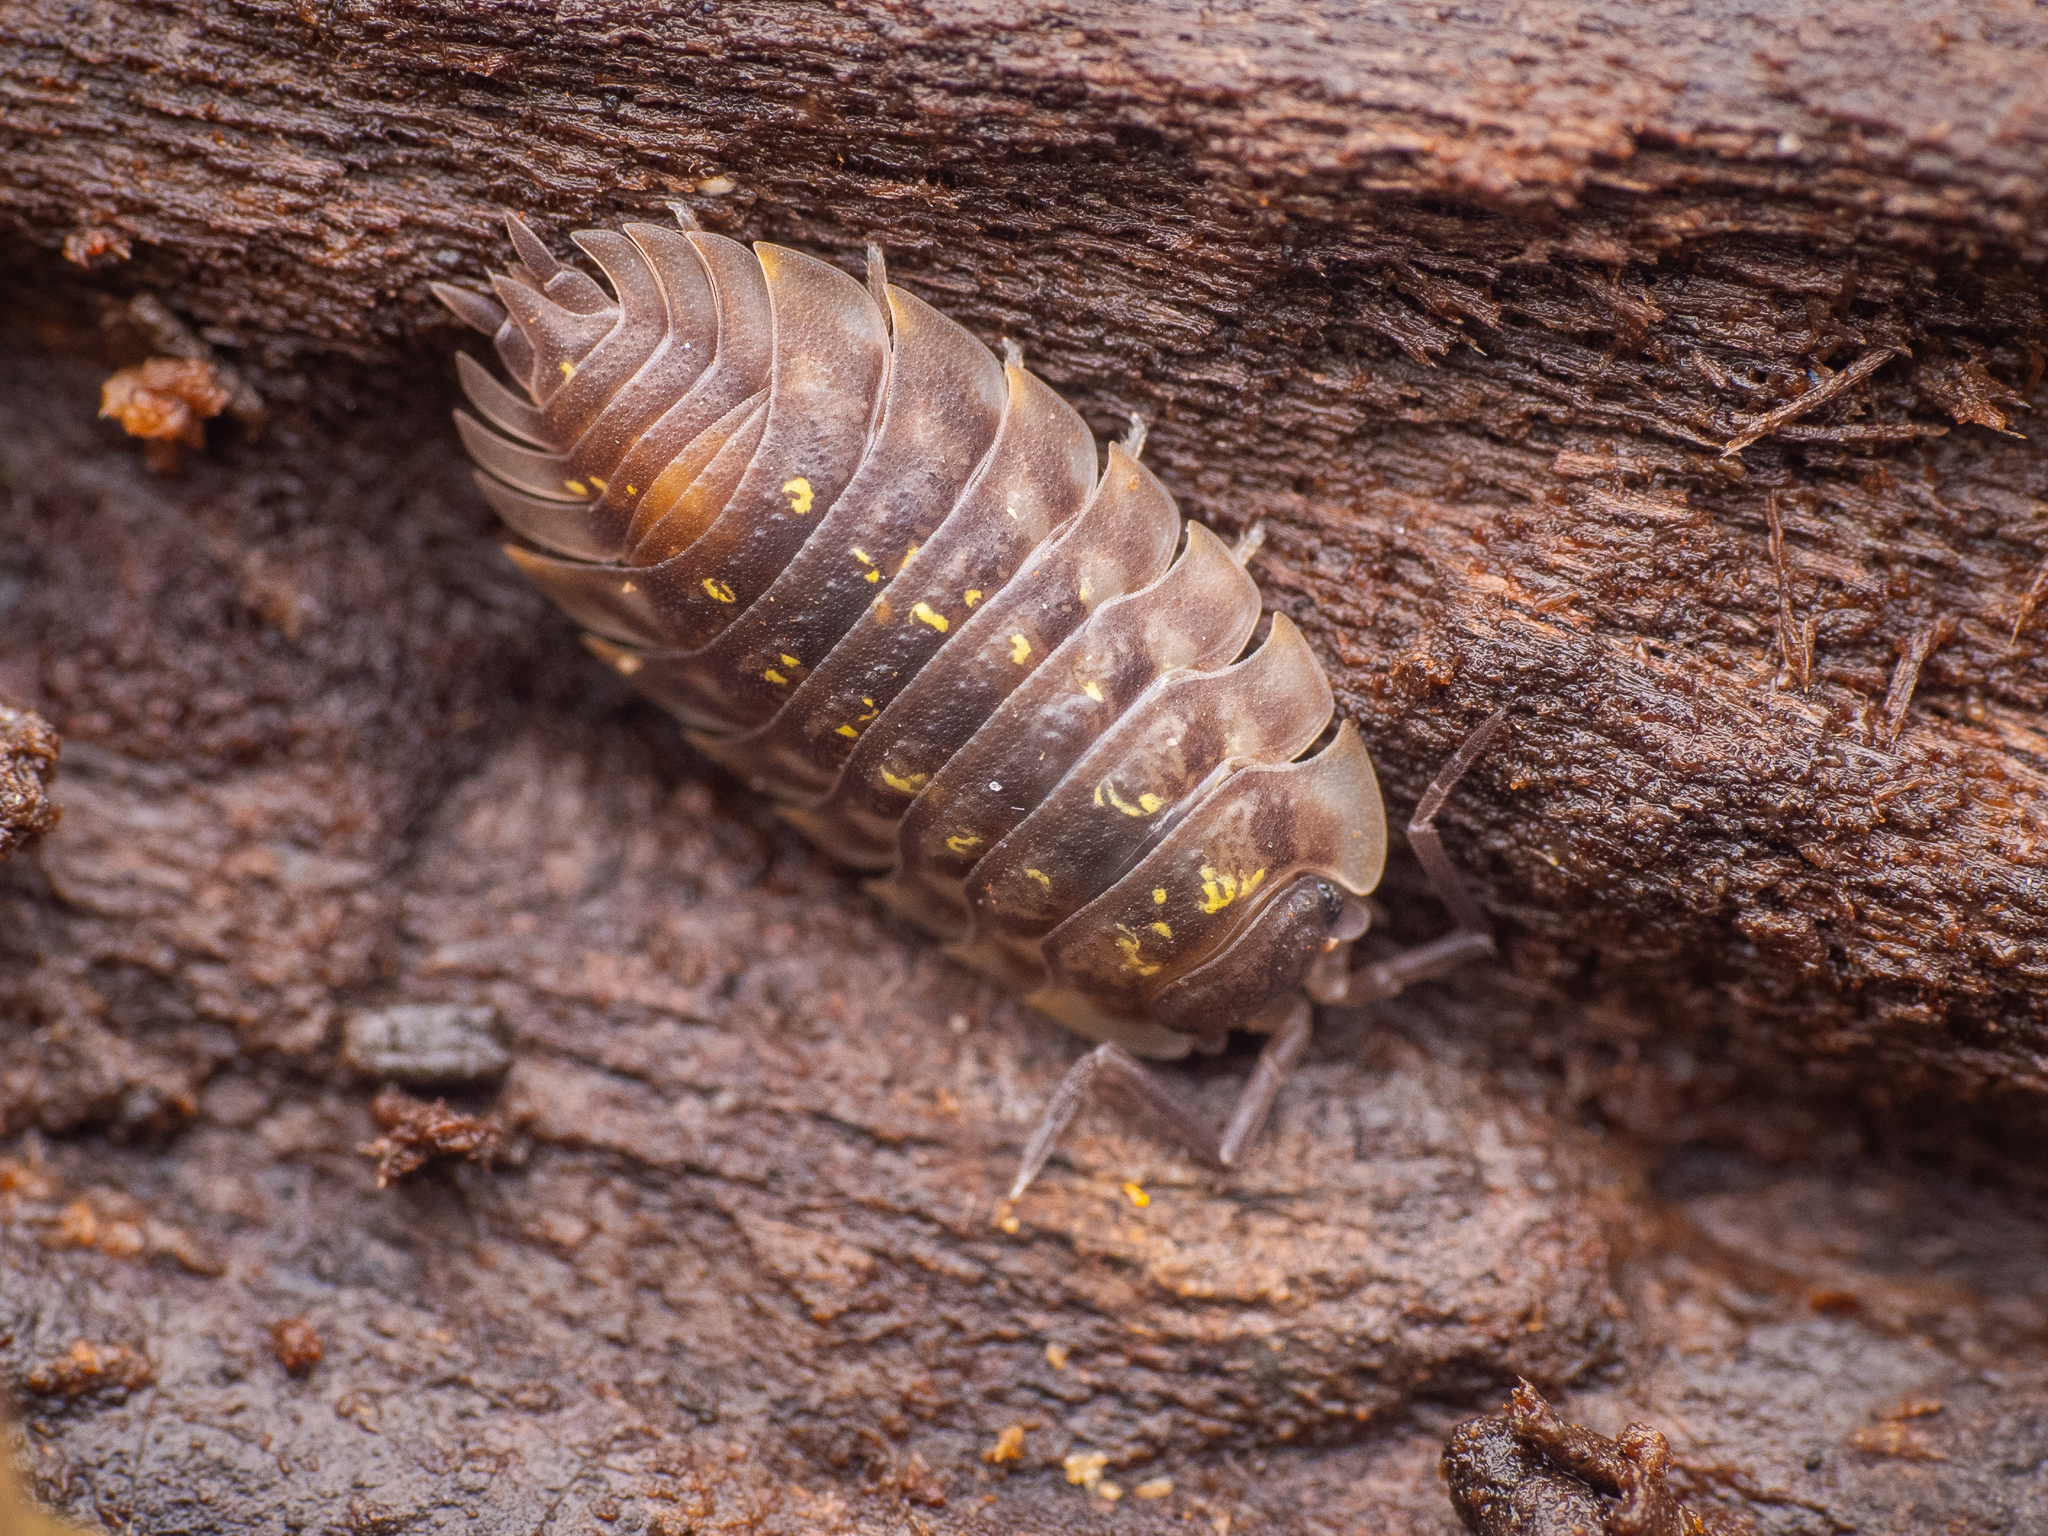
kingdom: Animalia
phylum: Arthropoda
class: Malacostraca
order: Isopoda
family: Oniscidae
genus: Oniscus
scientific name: Oniscus asellus
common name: Common shiny woodlouse
